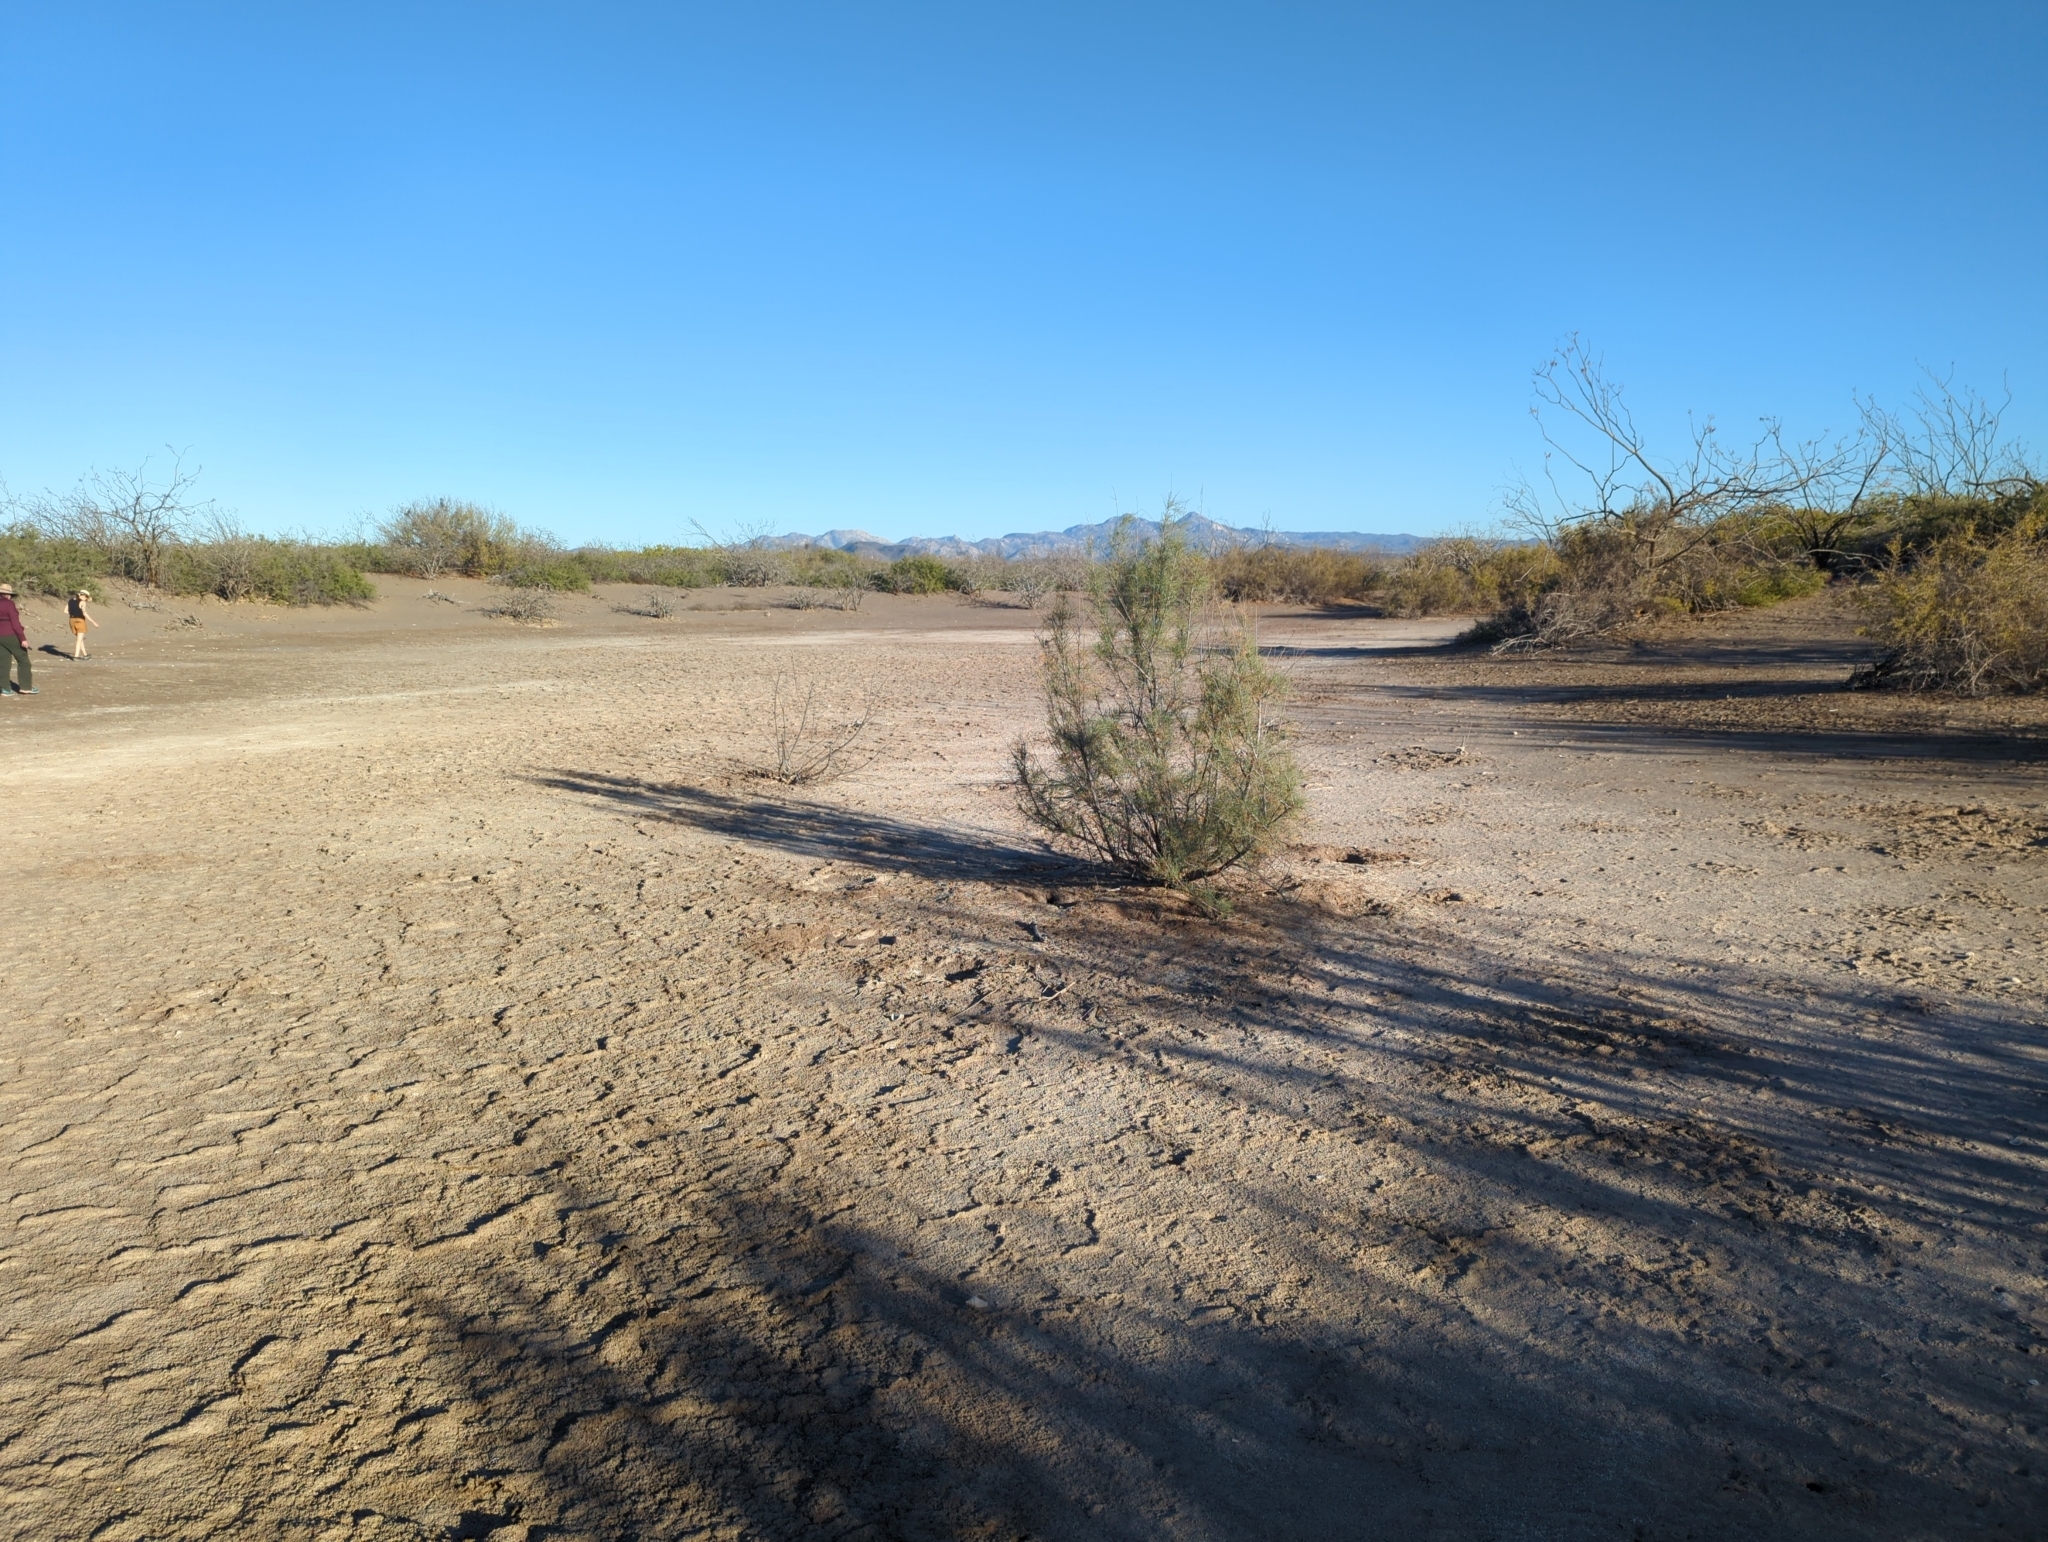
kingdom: Plantae
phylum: Tracheophyta
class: Magnoliopsida
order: Caryophyllales
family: Tamaricaceae
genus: Tamarix
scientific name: Tamarix aphylla
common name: Athel tamarisk
